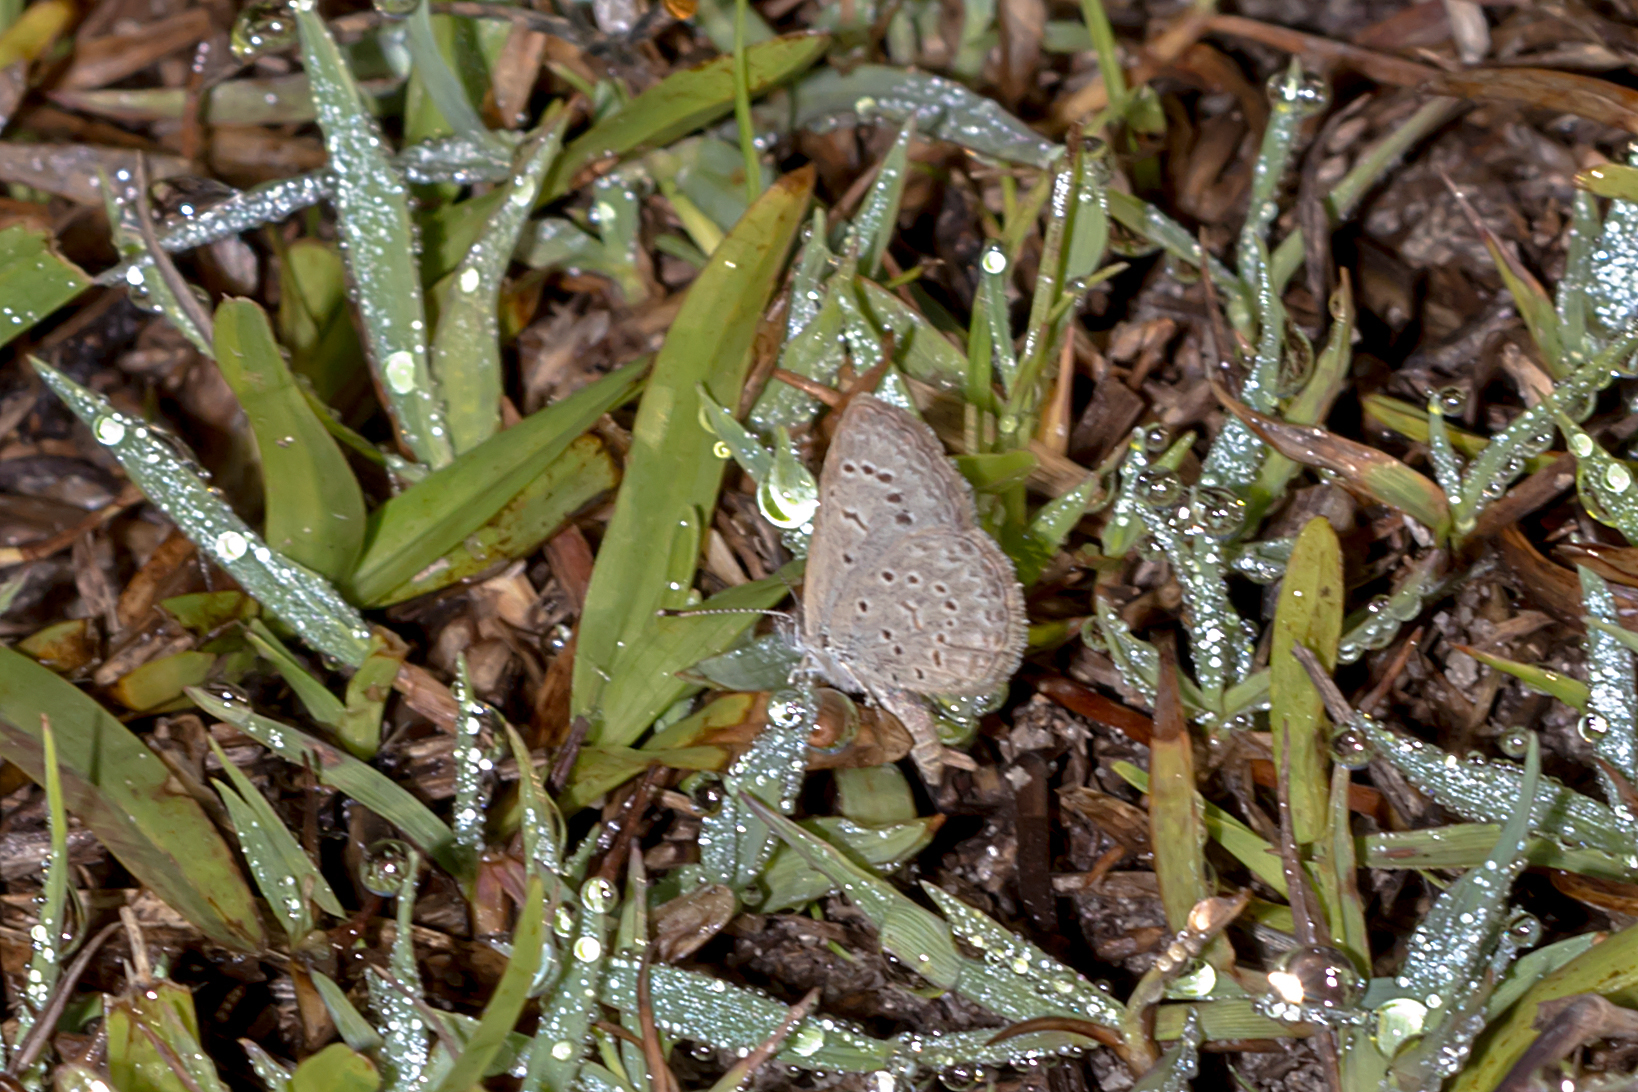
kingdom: Animalia
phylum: Arthropoda
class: Insecta
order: Lepidoptera
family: Lycaenidae
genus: Zizeeria
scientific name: Zizeeria karsandra
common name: Dark grass blue
